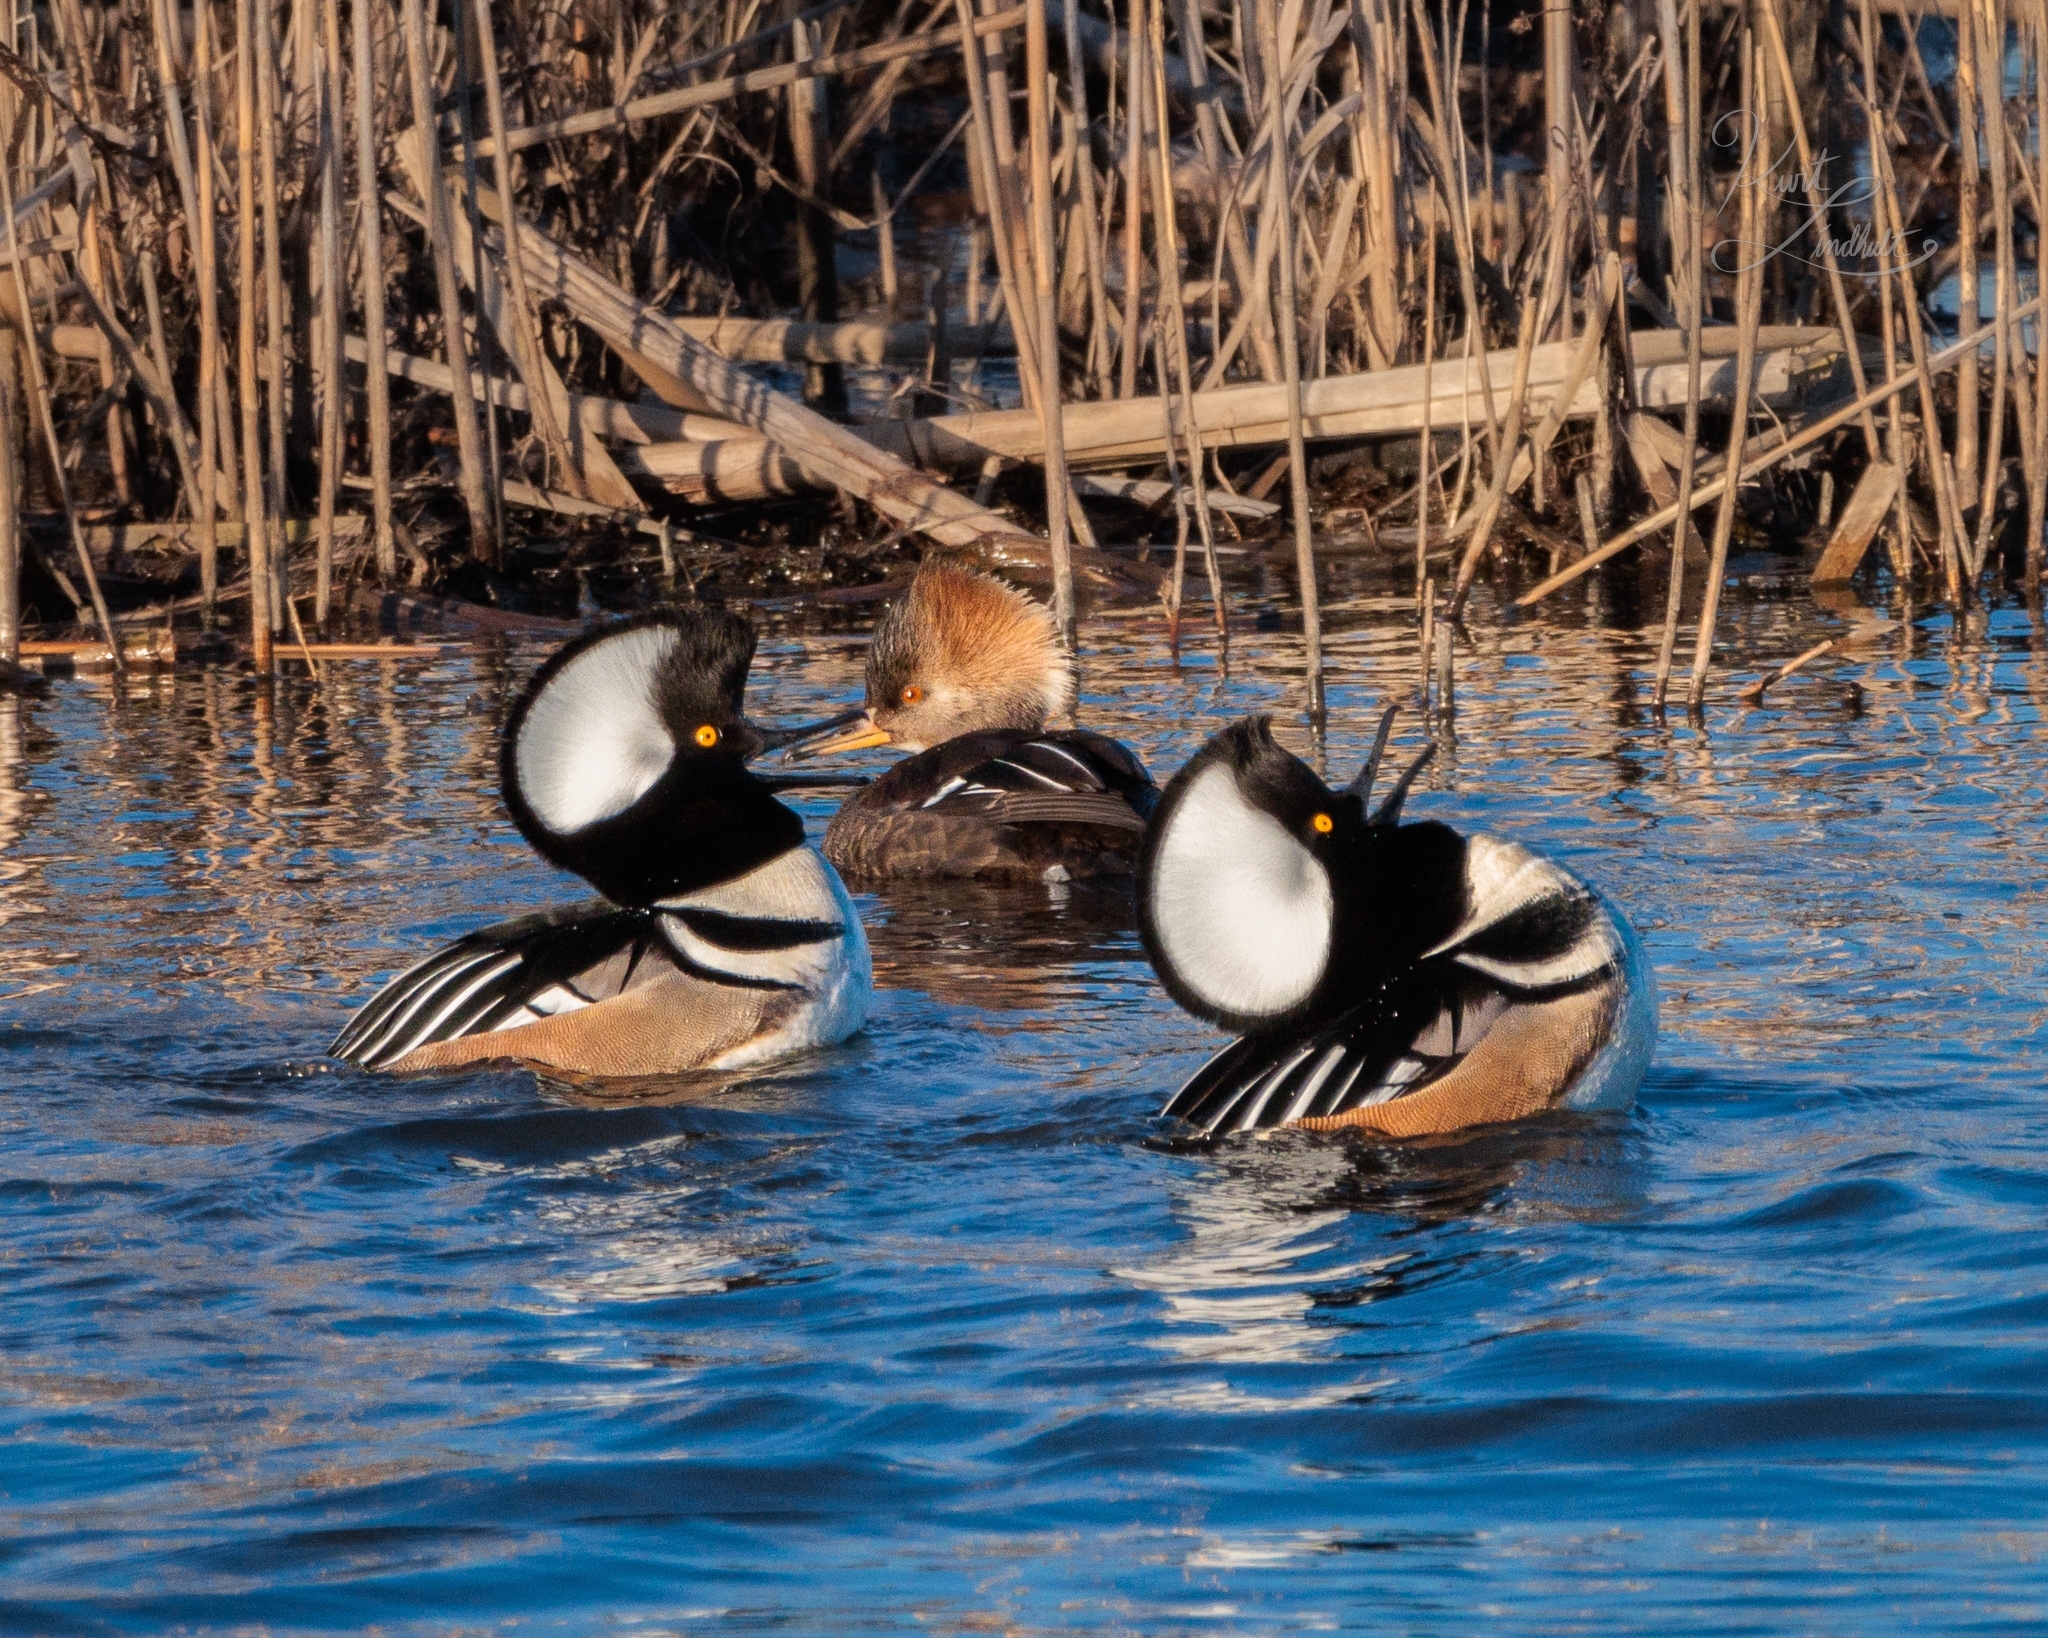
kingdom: Animalia
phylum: Chordata
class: Aves
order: Anseriformes
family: Anatidae
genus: Lophodytes
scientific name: Lophodytes cucullatus
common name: Hooded merganser
